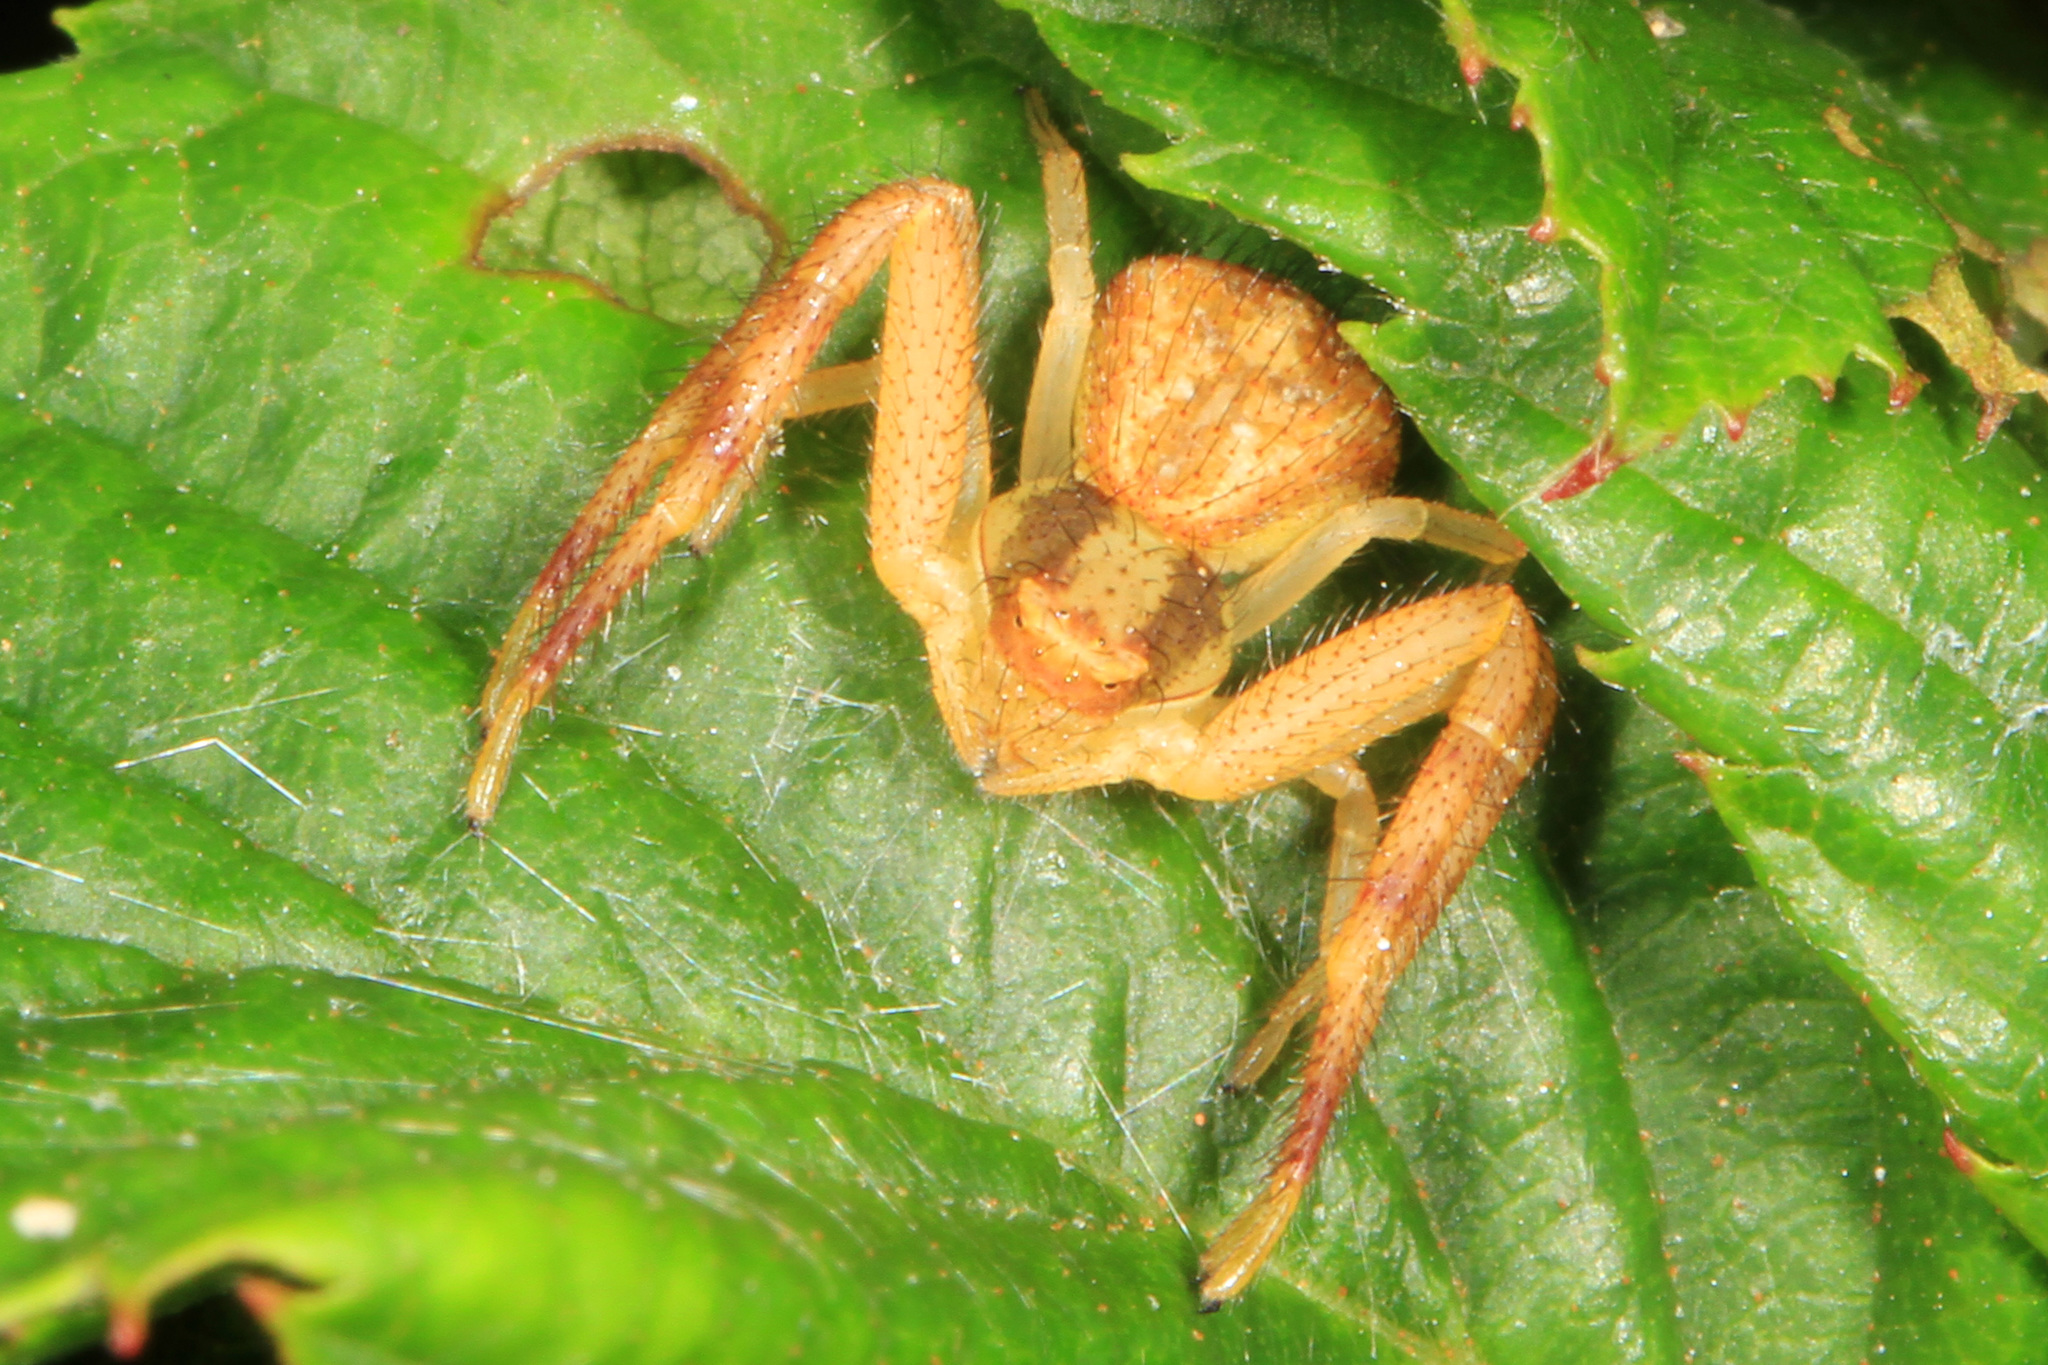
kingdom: Animalia
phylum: Arthropoda
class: Arachnida
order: Araneae
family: Thomisidae
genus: Mecaphesa
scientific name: Mecaphesa asperata
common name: Crab spiders
